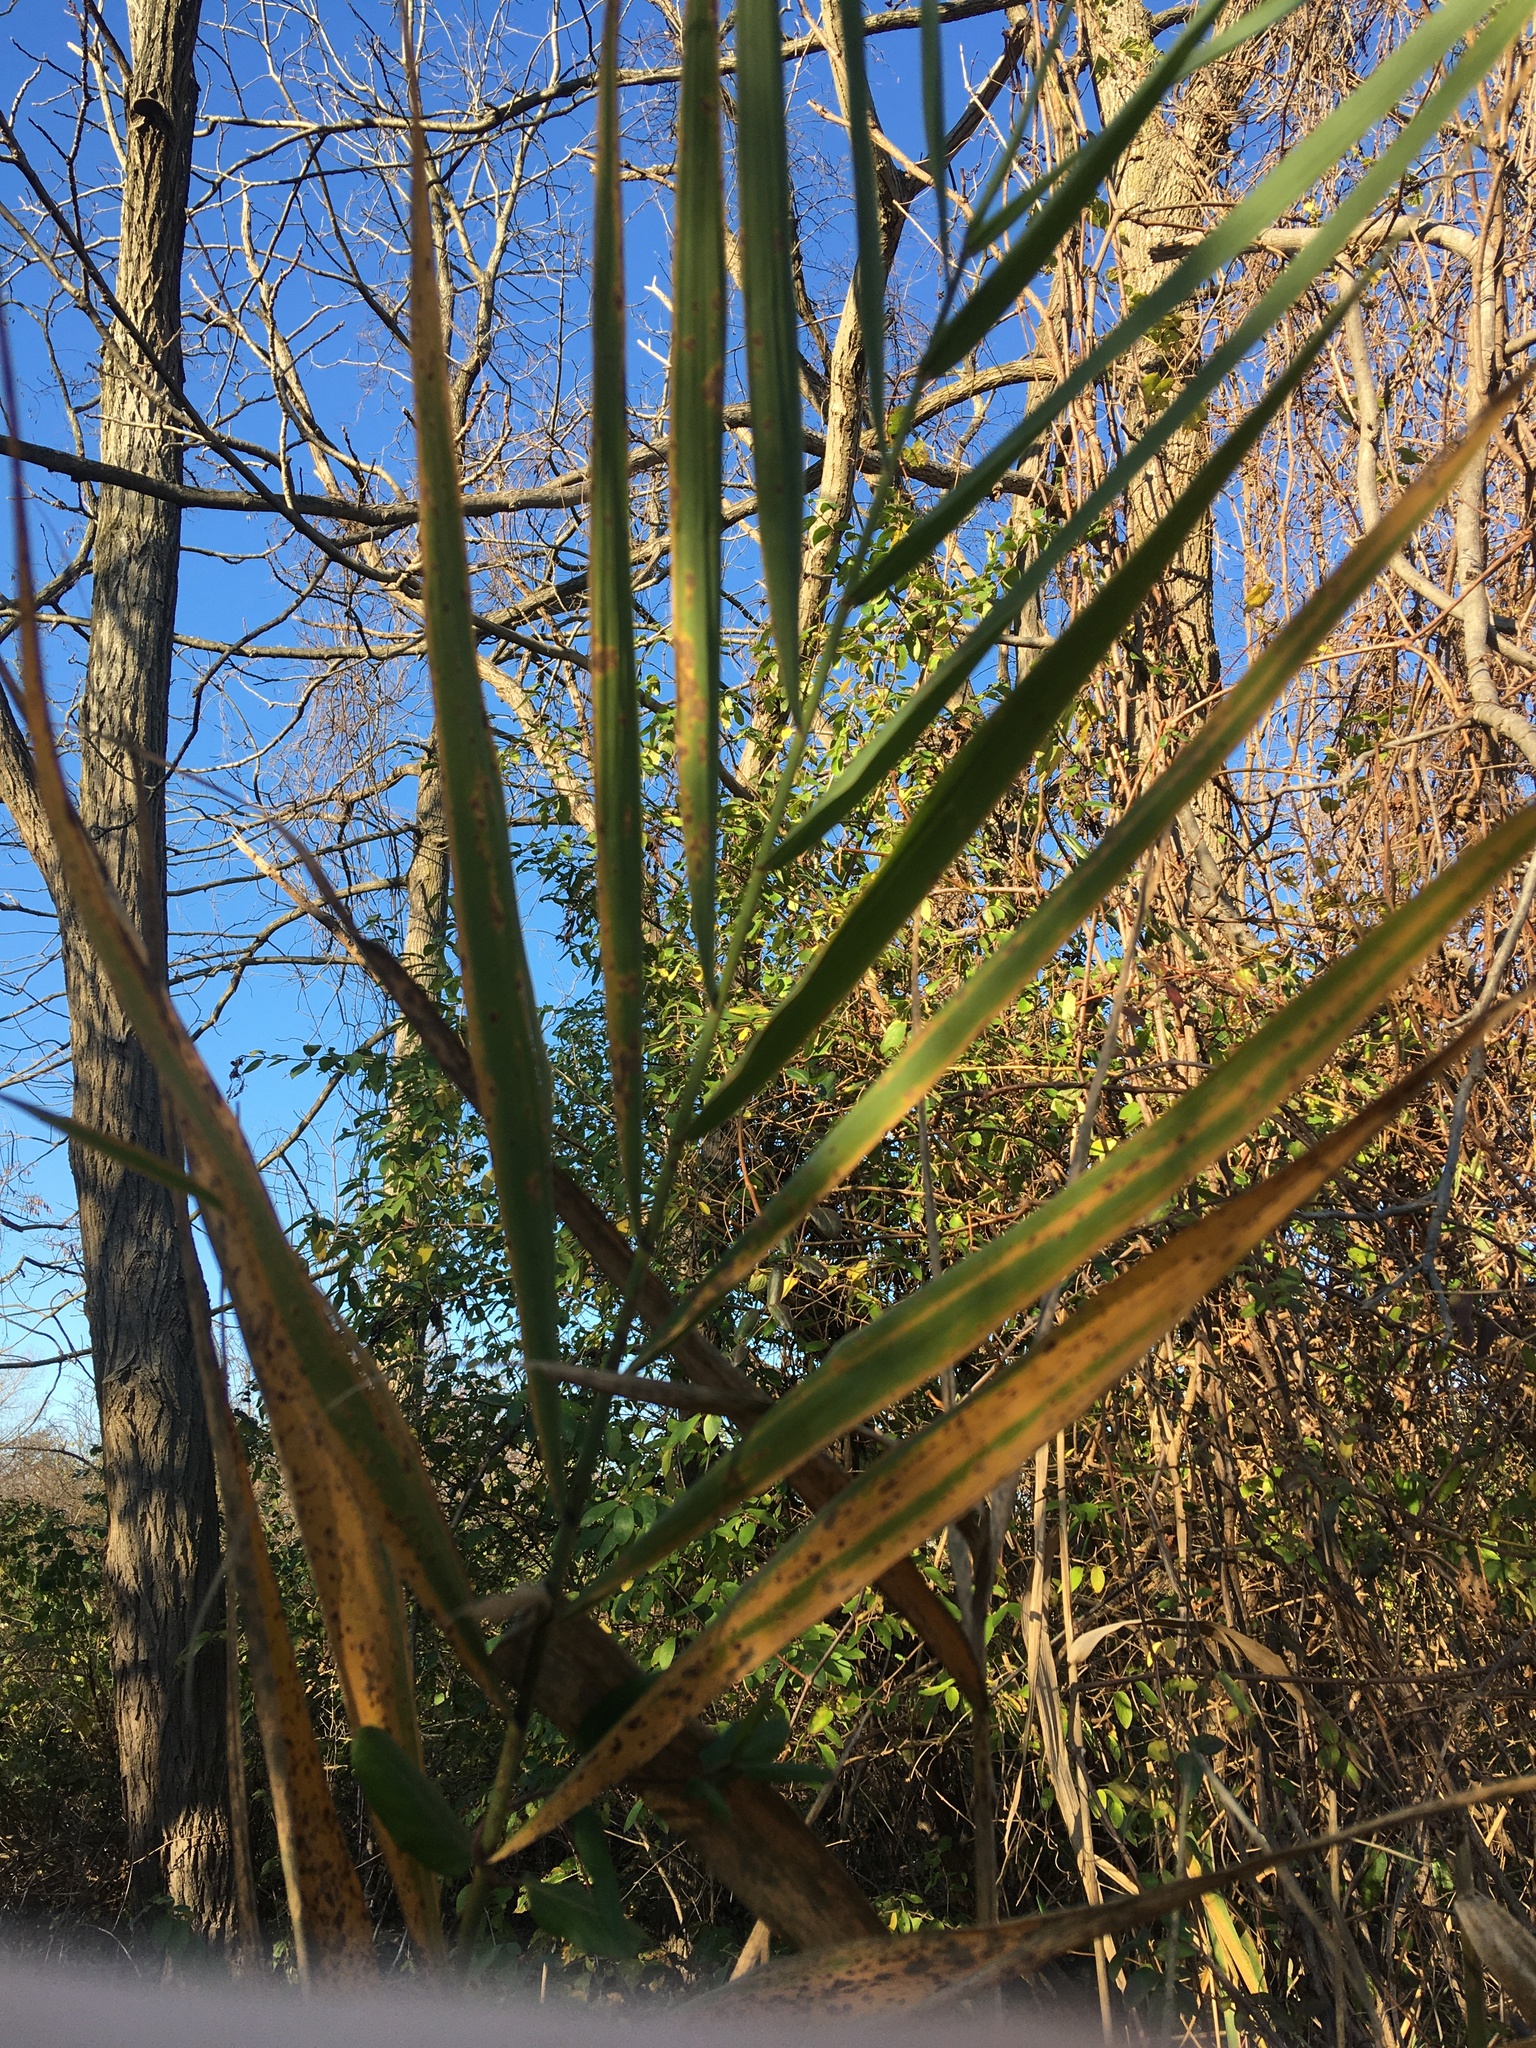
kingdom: Plantae
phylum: Tracheophyta
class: Liliopsida
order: Poales
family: Poaceae
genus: Phragmites
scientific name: Phragmites australis
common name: Common reed
